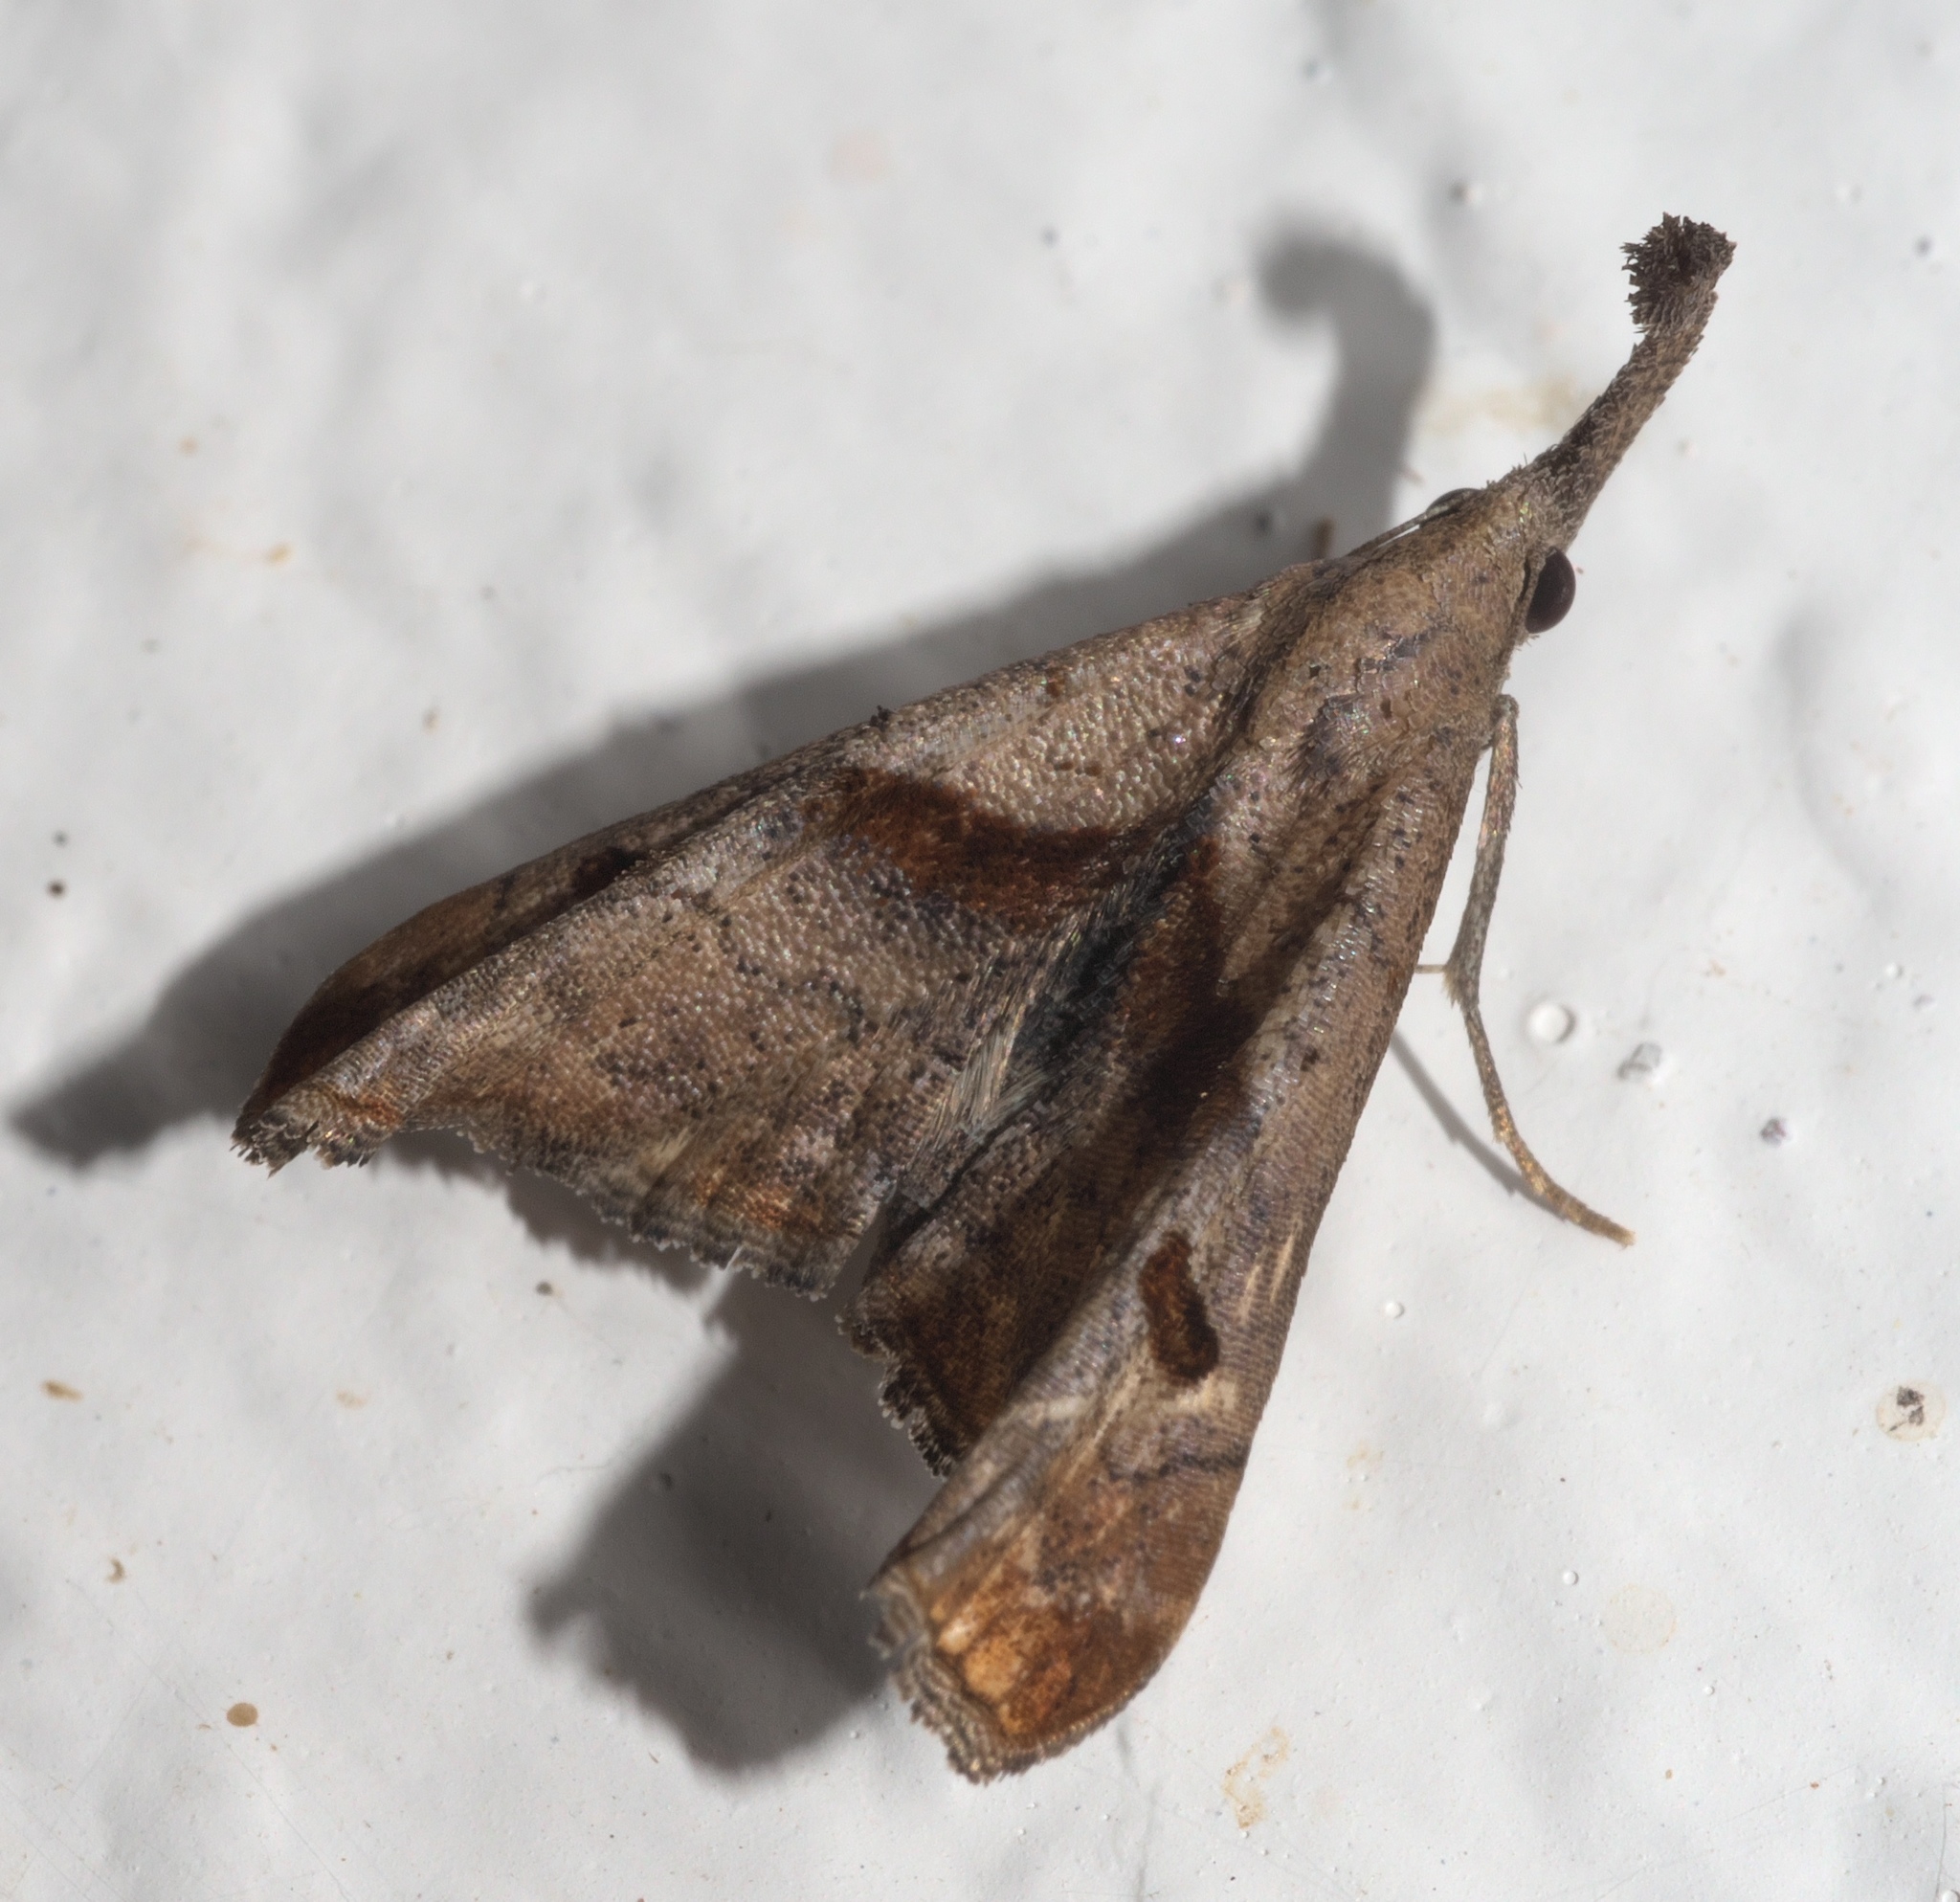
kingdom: Animalia
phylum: Arthropoda
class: Insecta
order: Lepidoptera
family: Erebidae
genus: Palthis
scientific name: Palthis angulalis
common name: Dark-spotted palthis moth
